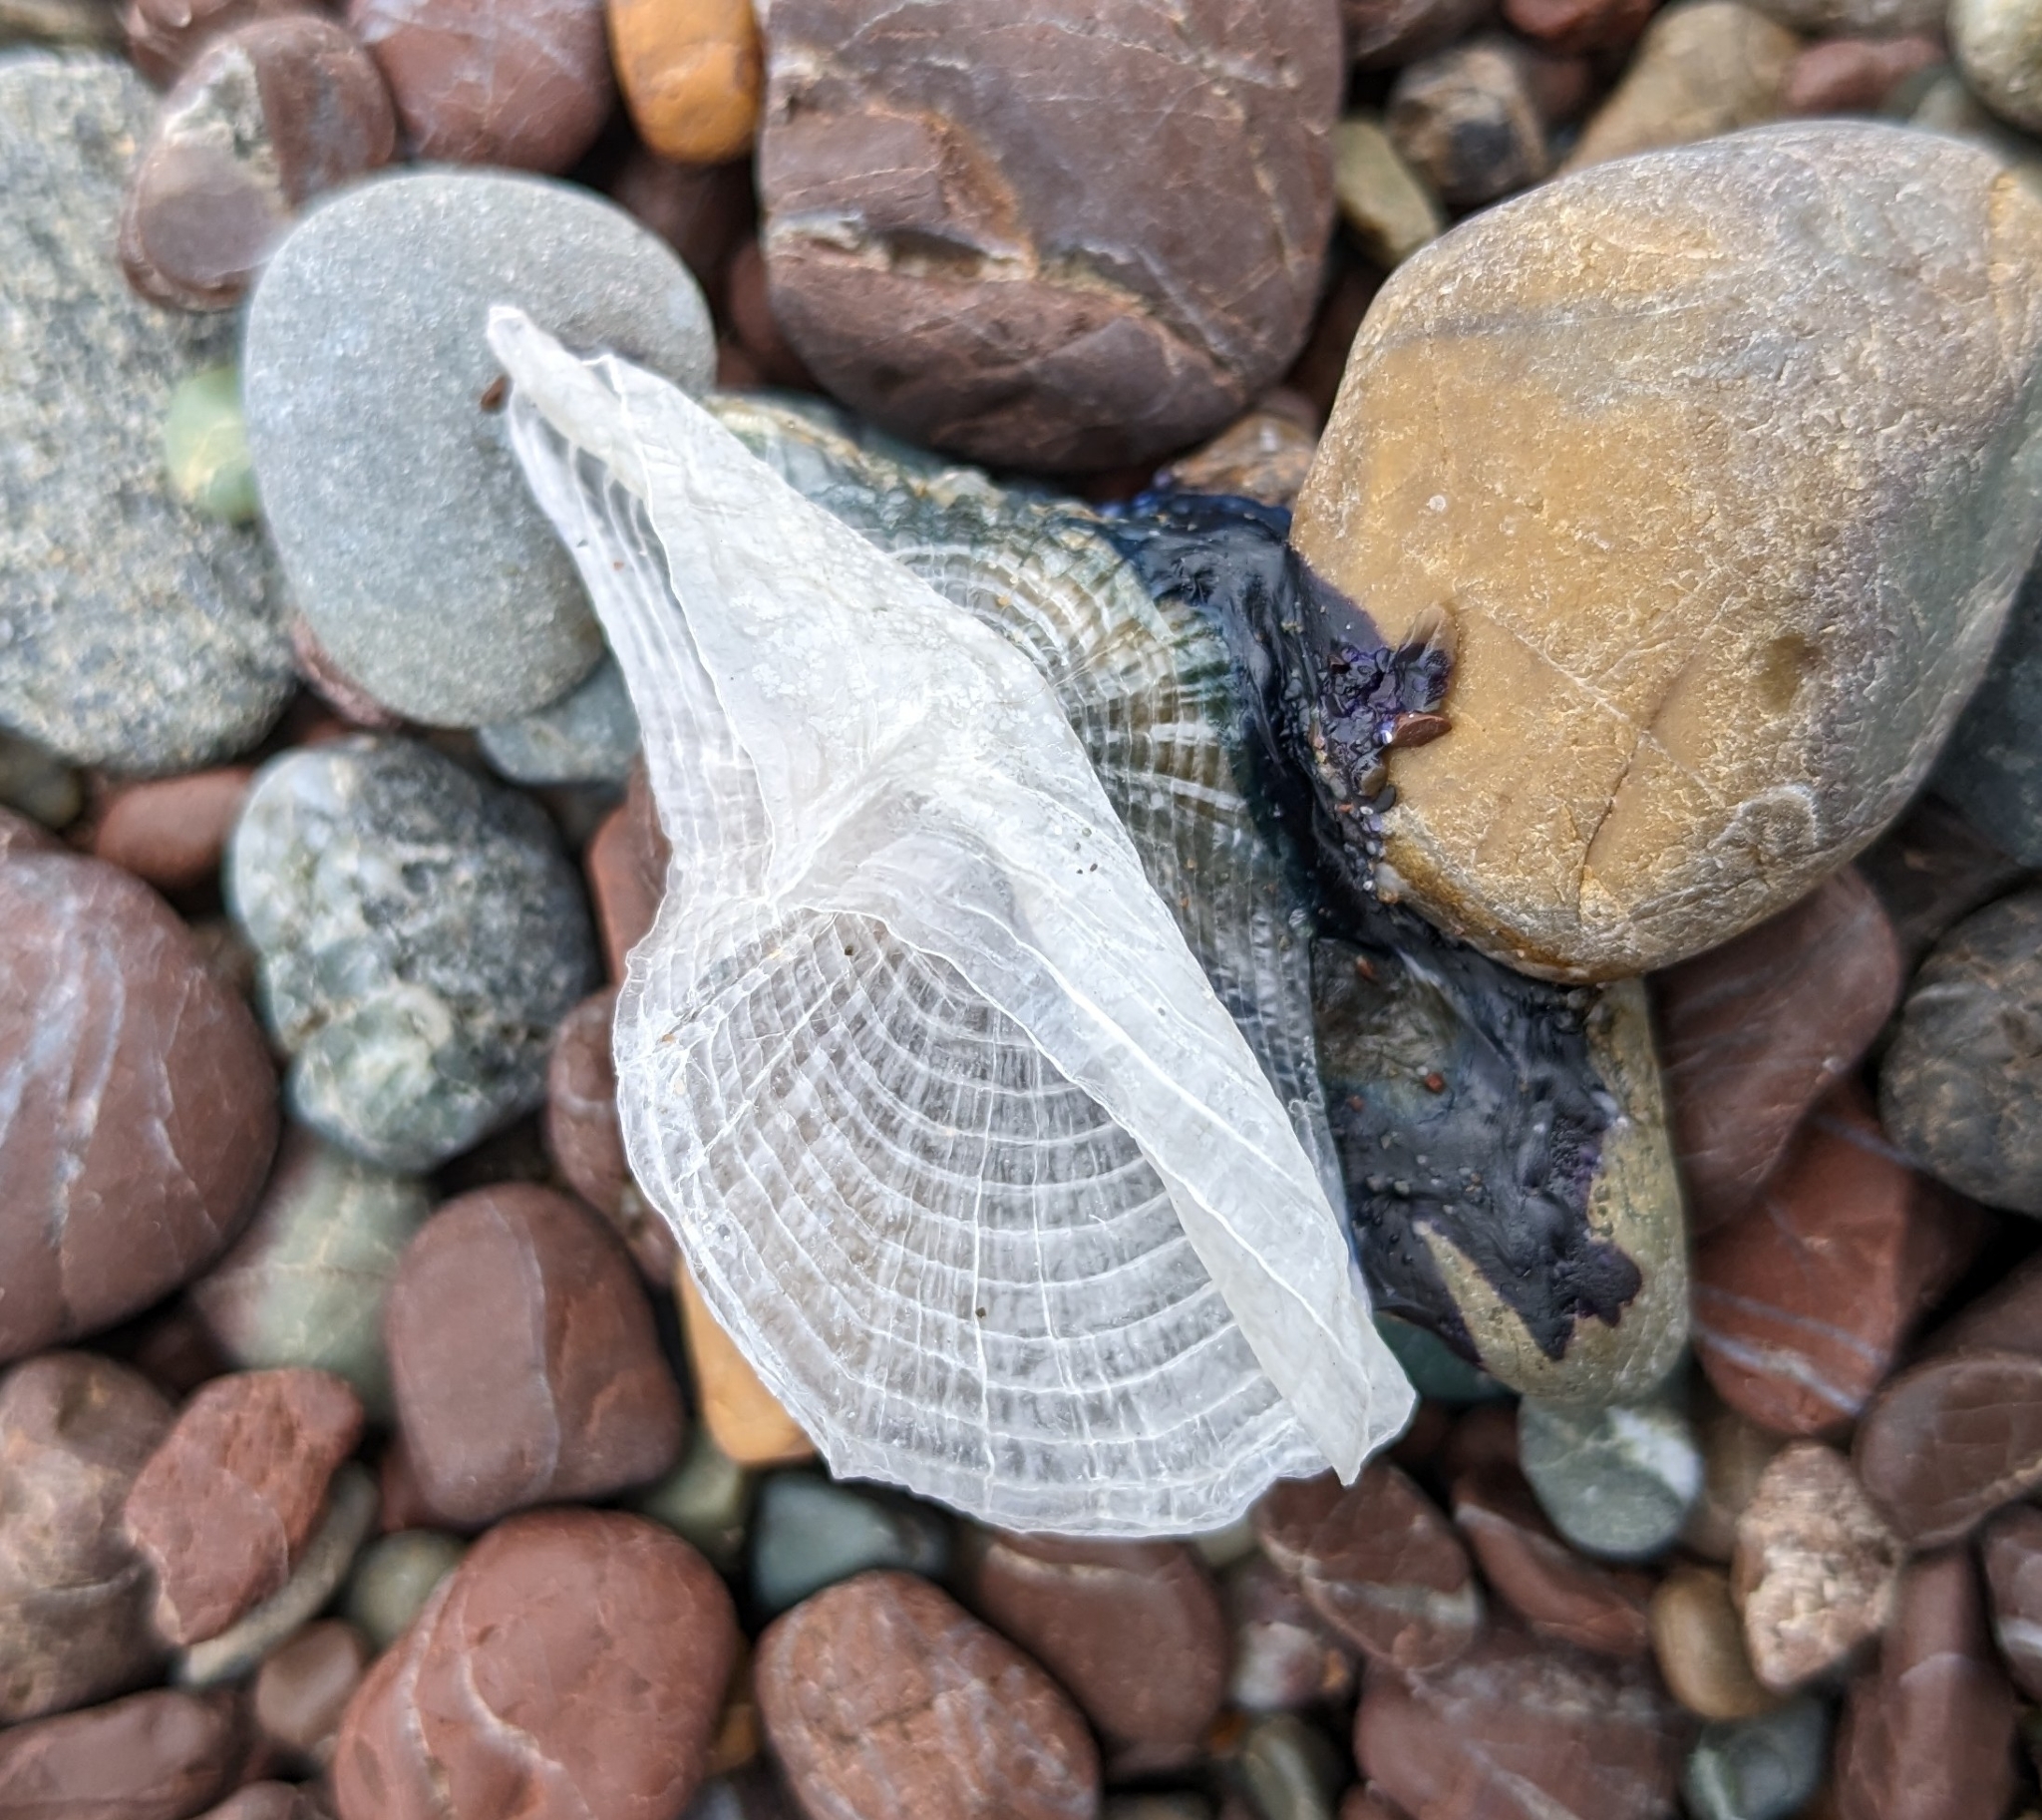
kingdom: Animalia
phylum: Cnidaria
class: Hydrozoa
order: Anthoathecata
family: Porpitidae
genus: Velella
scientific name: Velella velella
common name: By-the-wind-sailor
